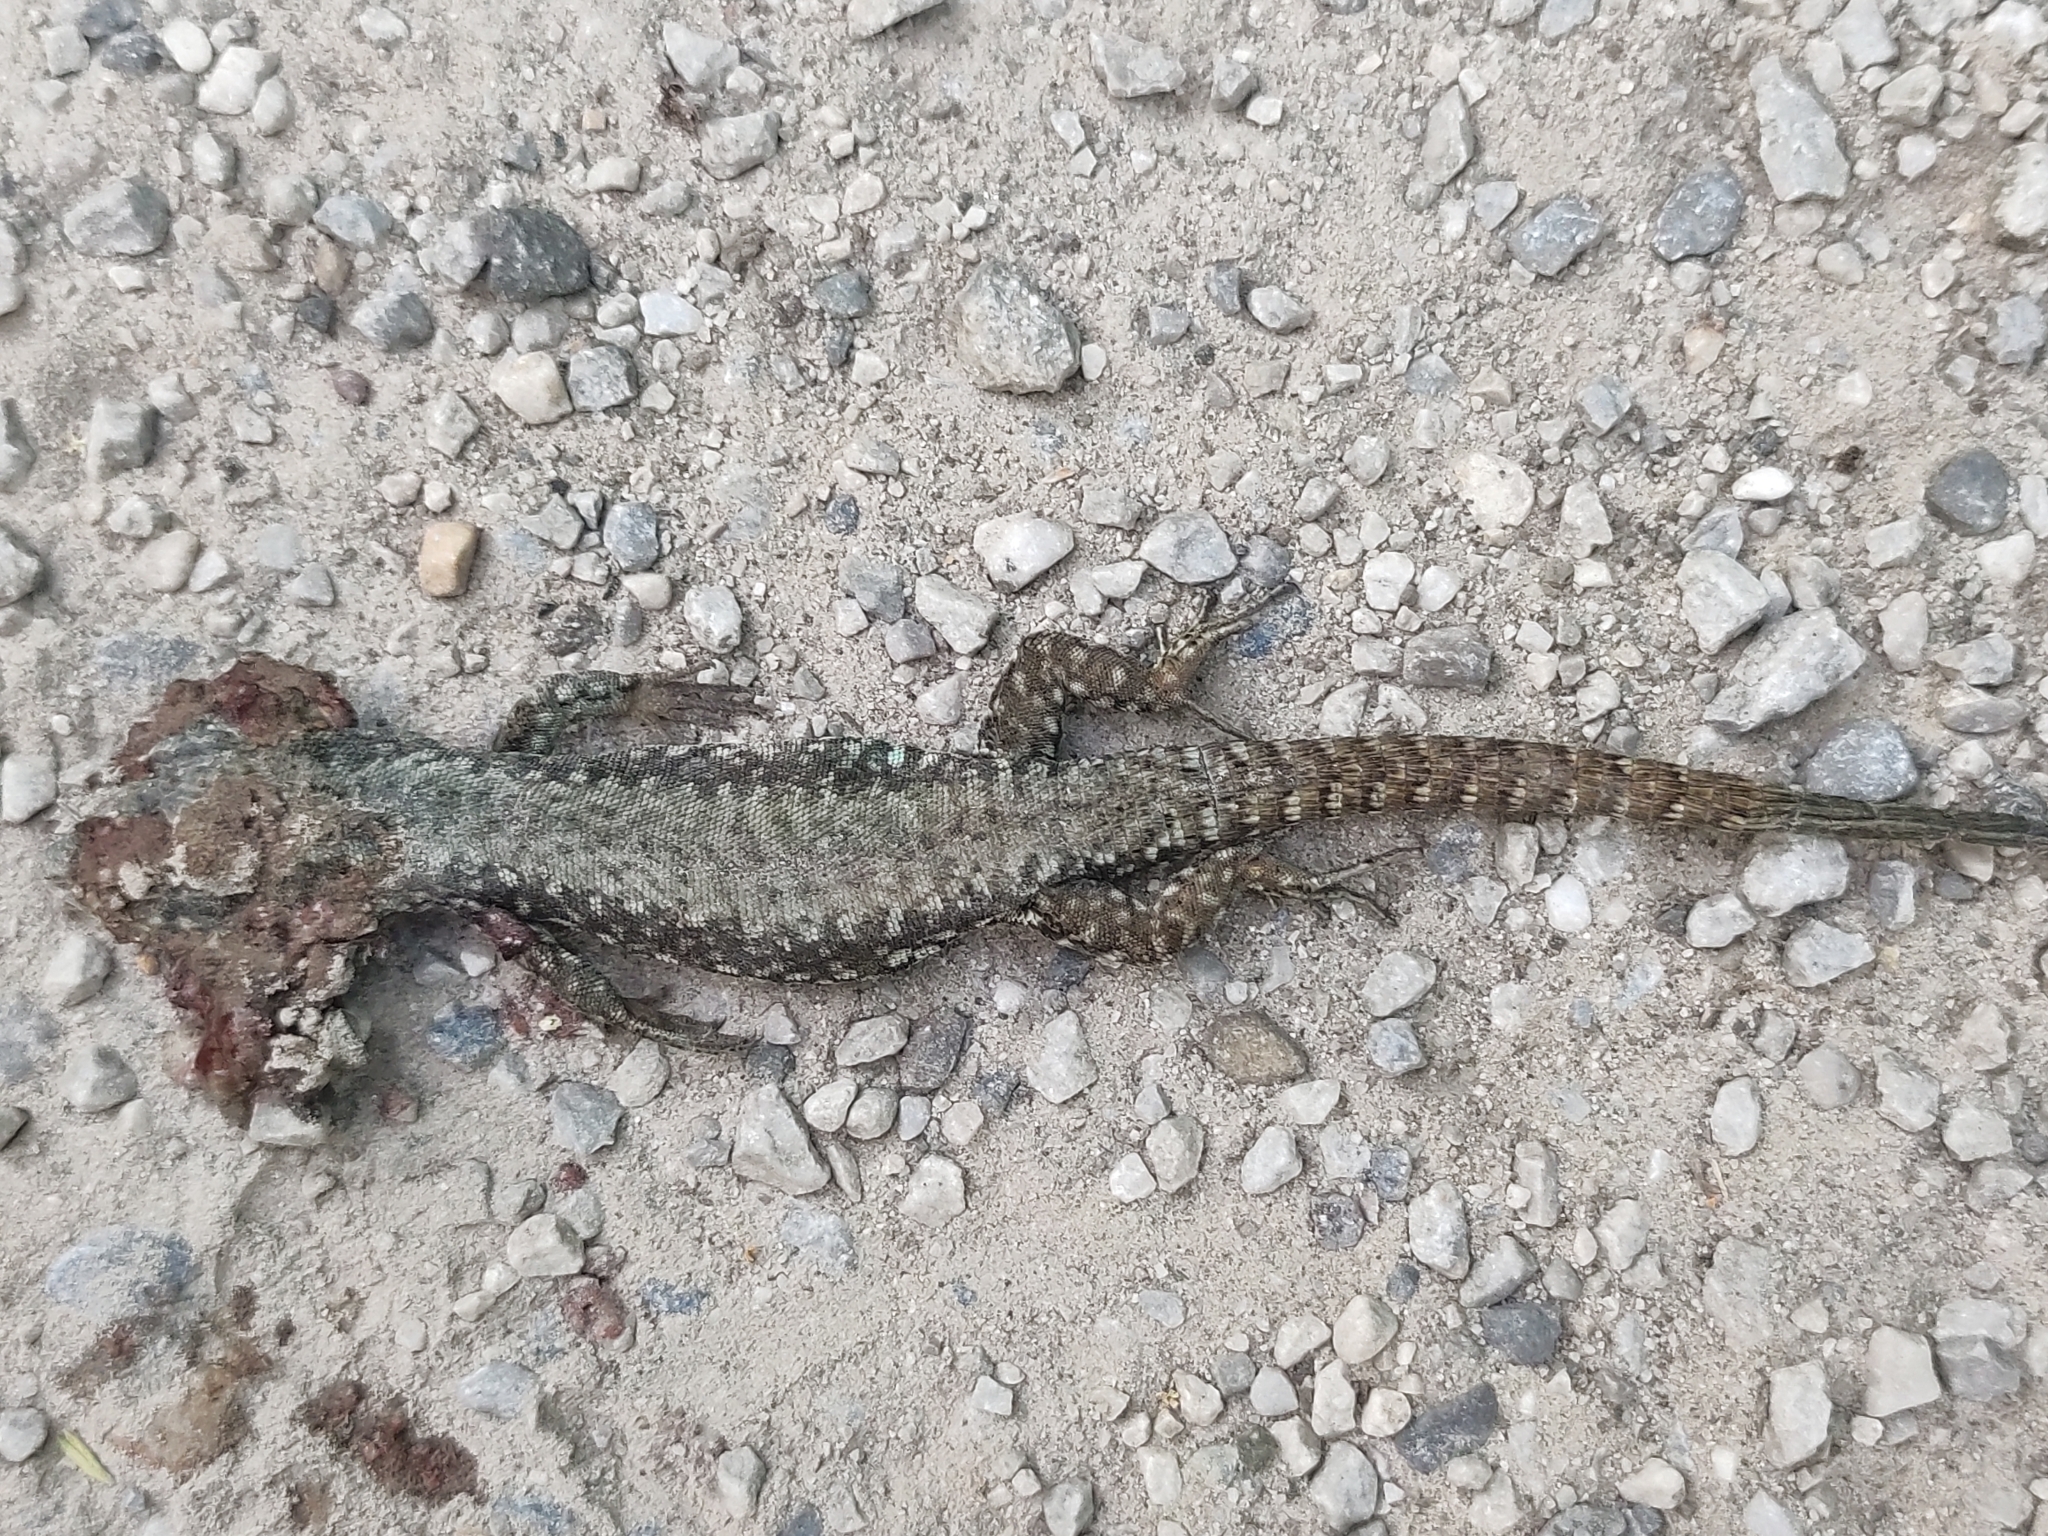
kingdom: Animalia
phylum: Chordata
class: Squamata
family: Lacertidae
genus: Podarcis
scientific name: Podarcis muralis
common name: Common wall lizard
